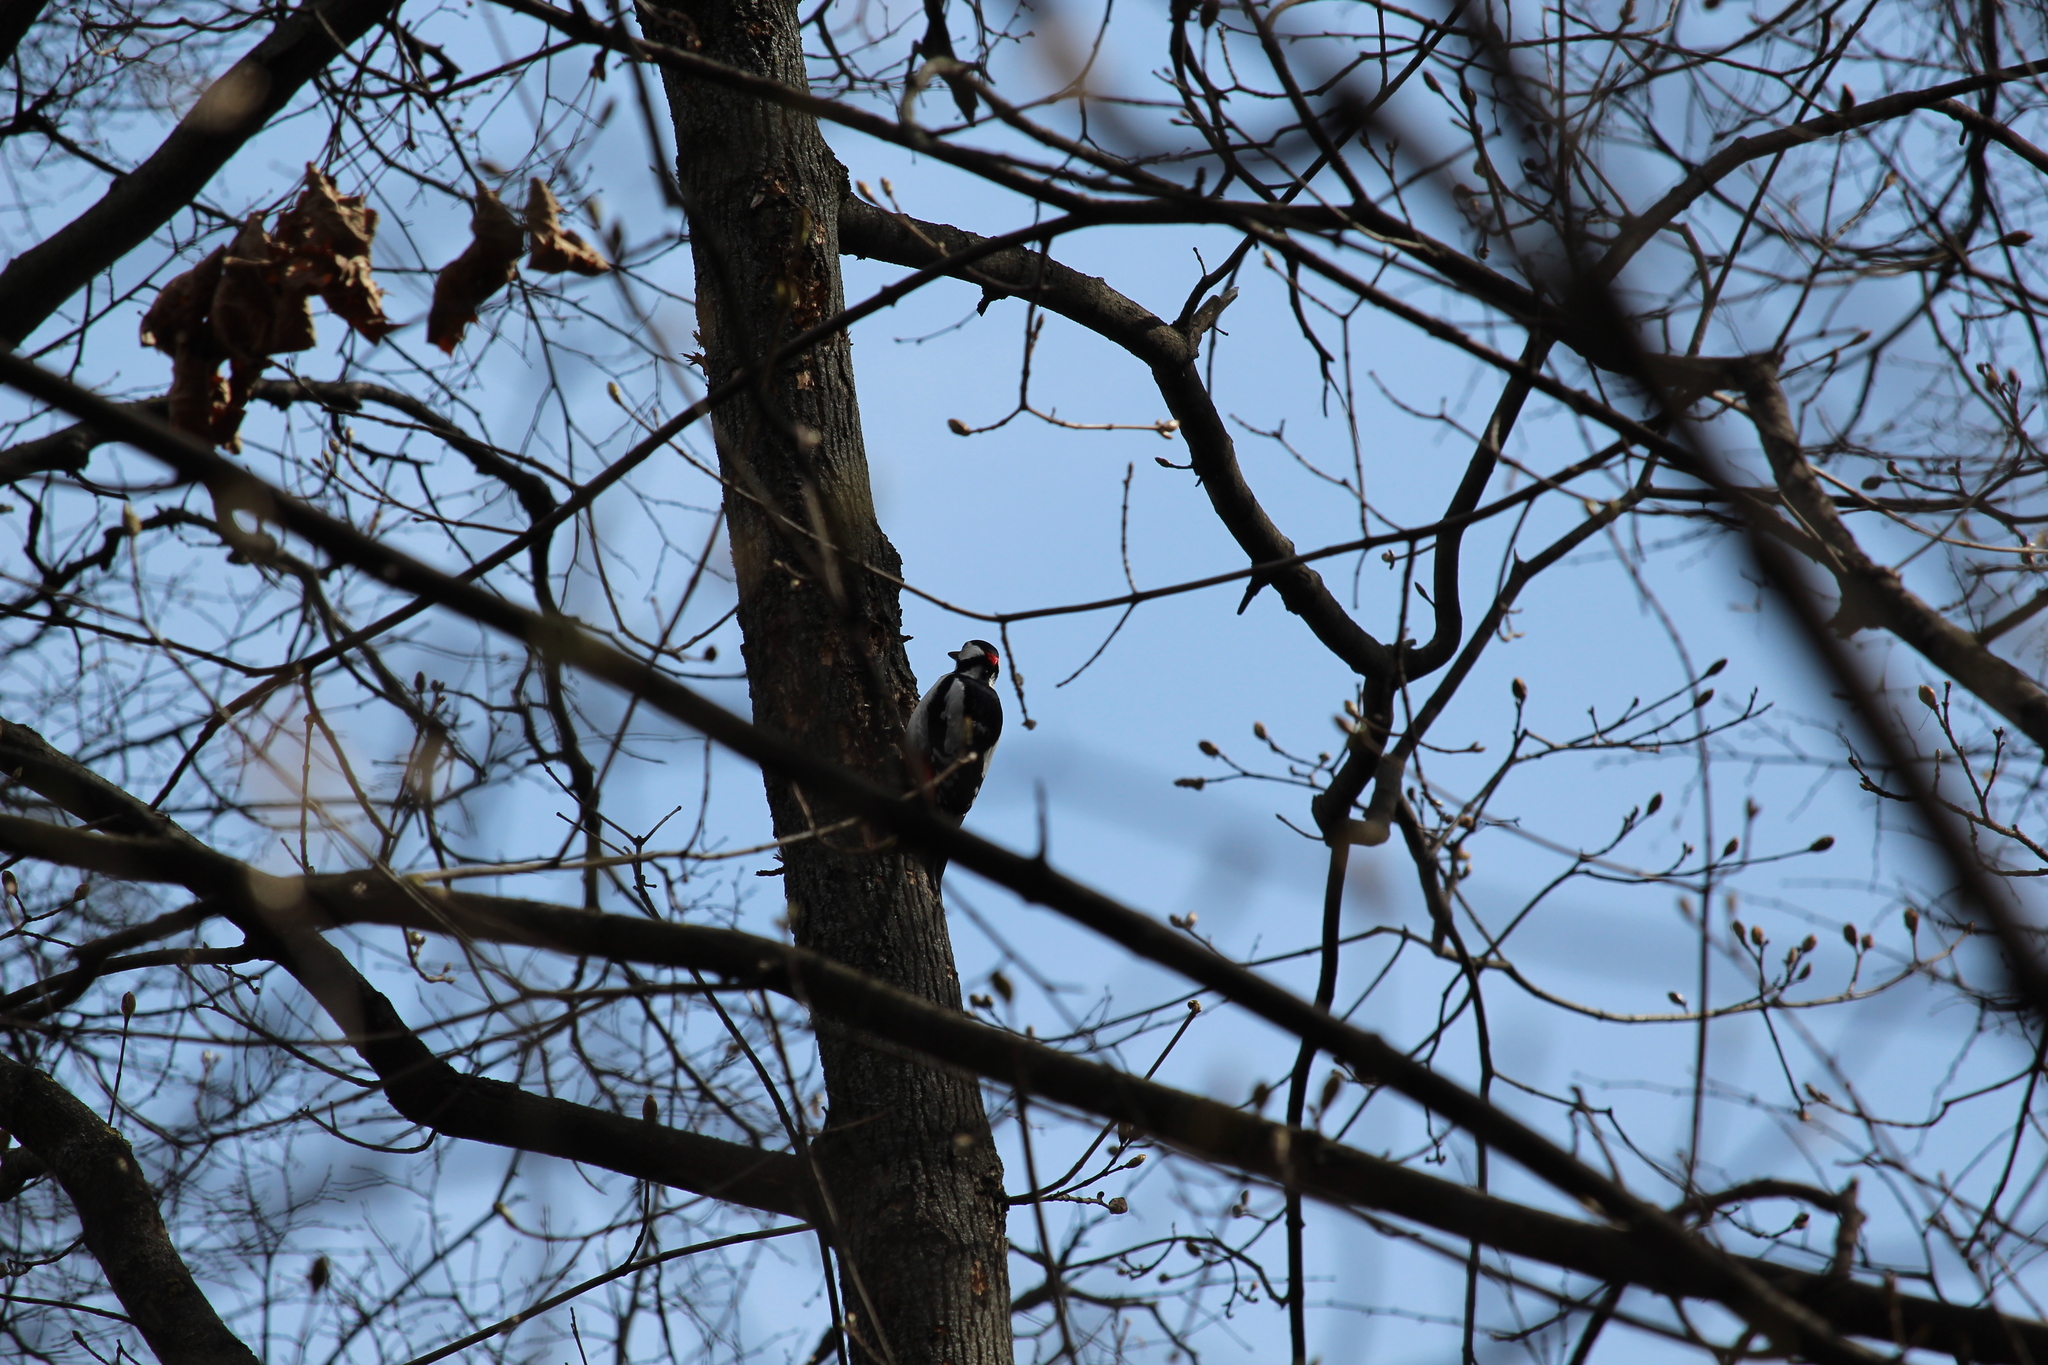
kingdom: Animalia
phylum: Chordata
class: Aves
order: Piciformes
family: Picidae
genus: Dendrocopos
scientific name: Dendrocopos major
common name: Great spotted woodpecker
